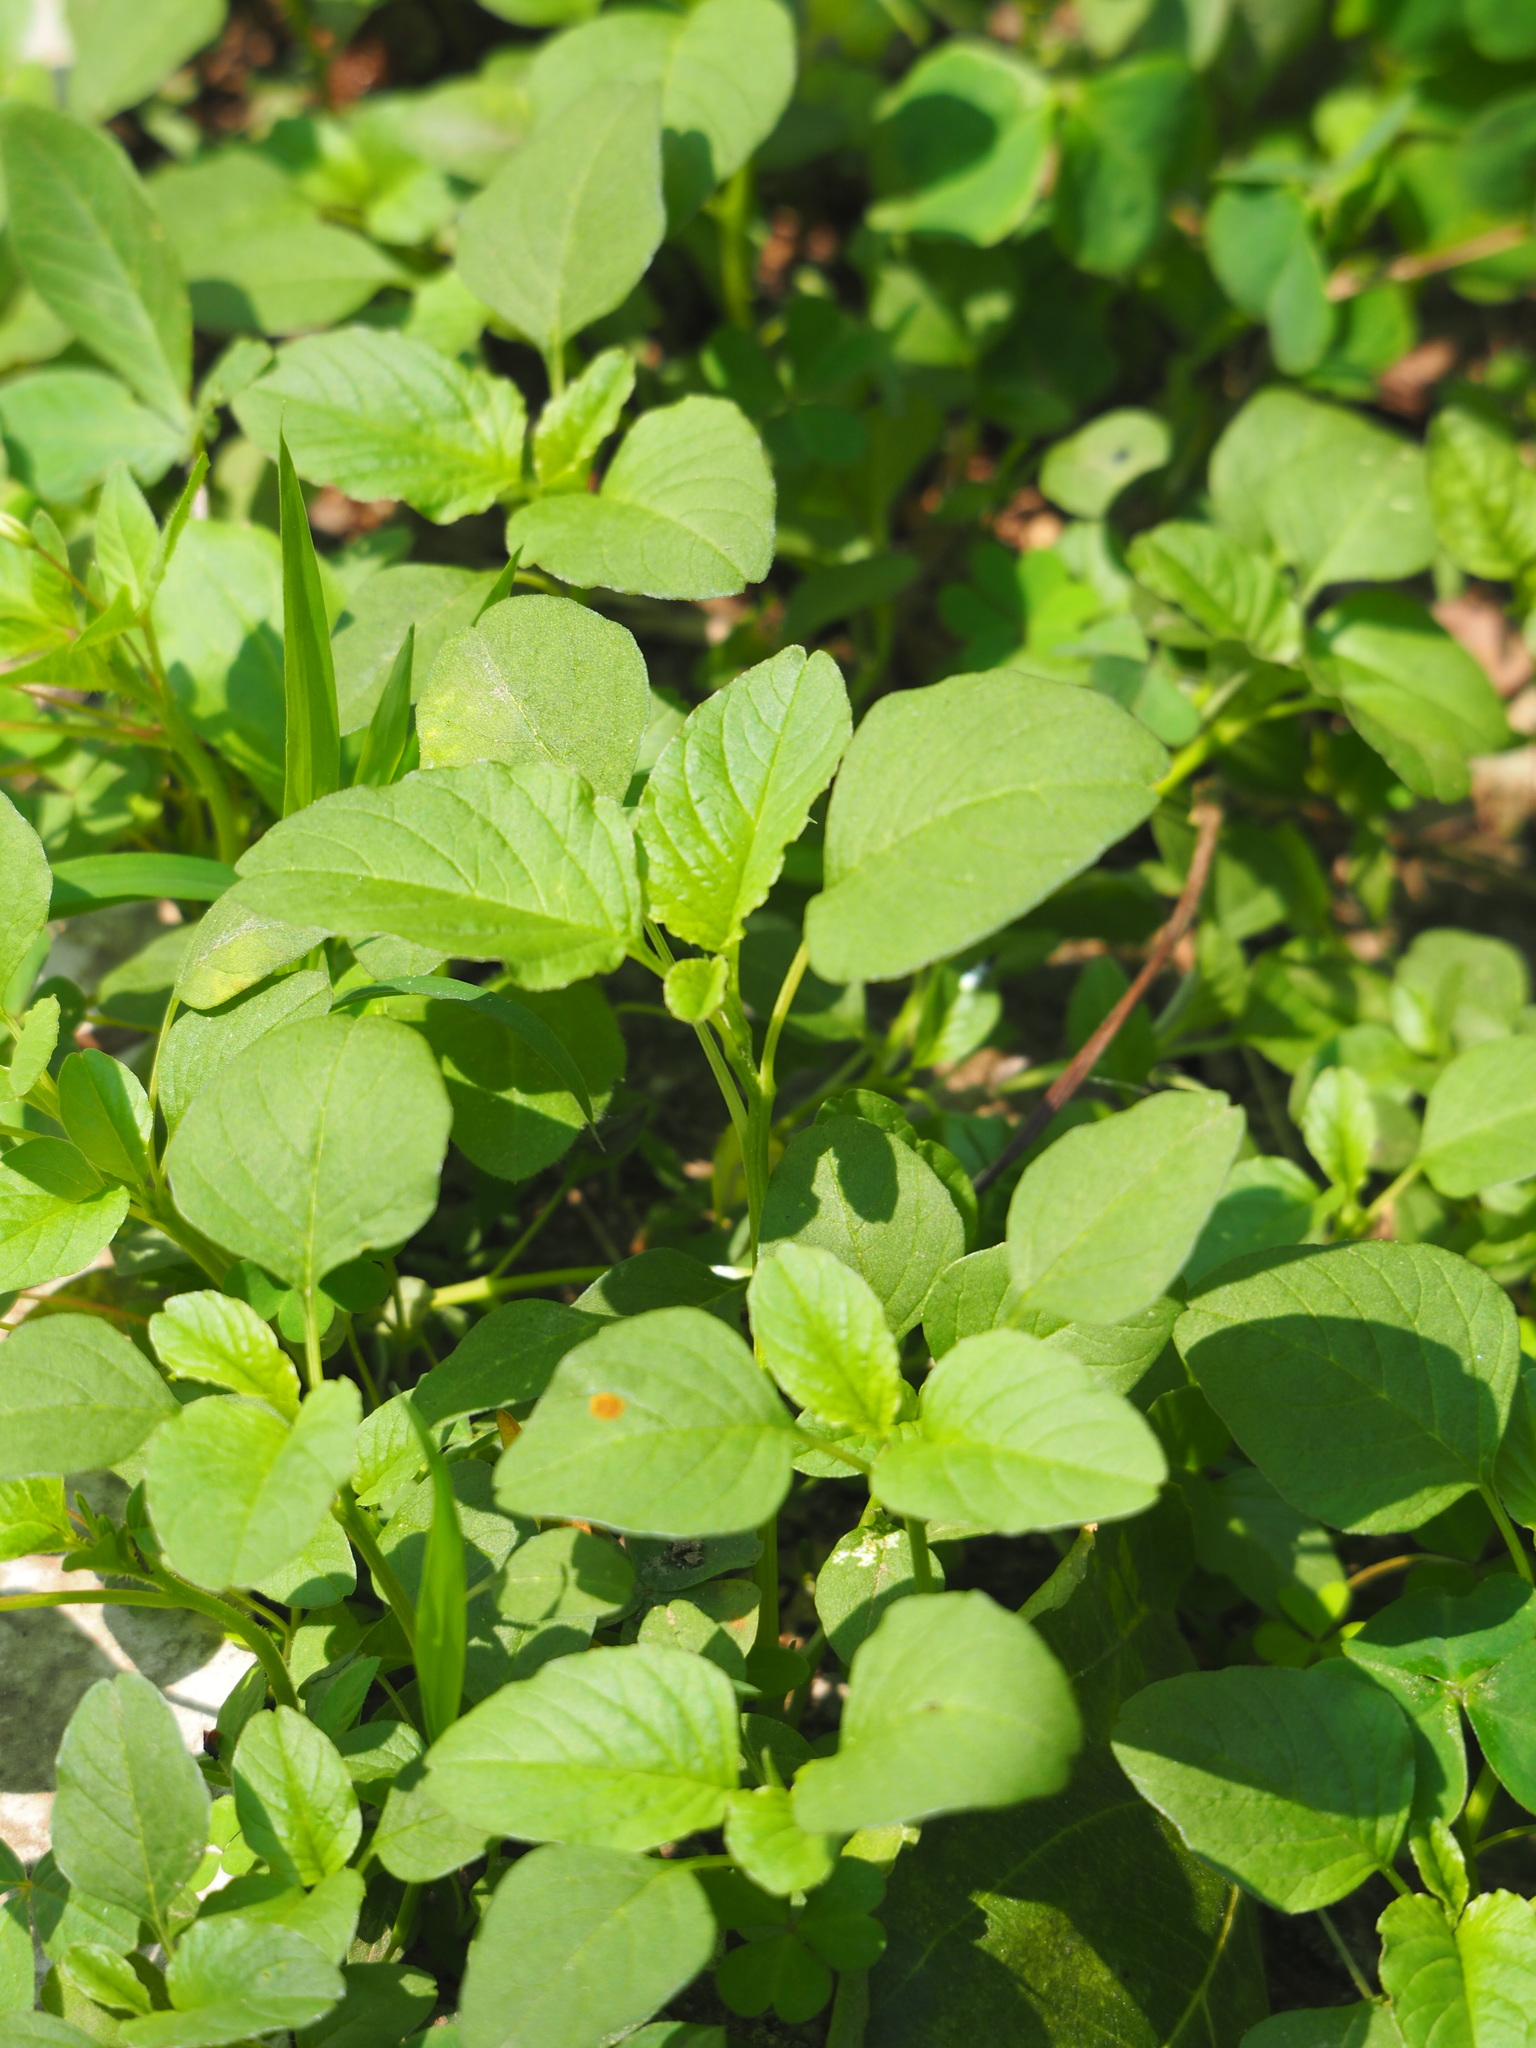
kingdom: Plantae
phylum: Tracheophyta
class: Magnoliopsida
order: Caryophyllales
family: Amaranthaceae
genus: Amaranthus
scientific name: Amaranthus blitum
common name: Purple amaranth
